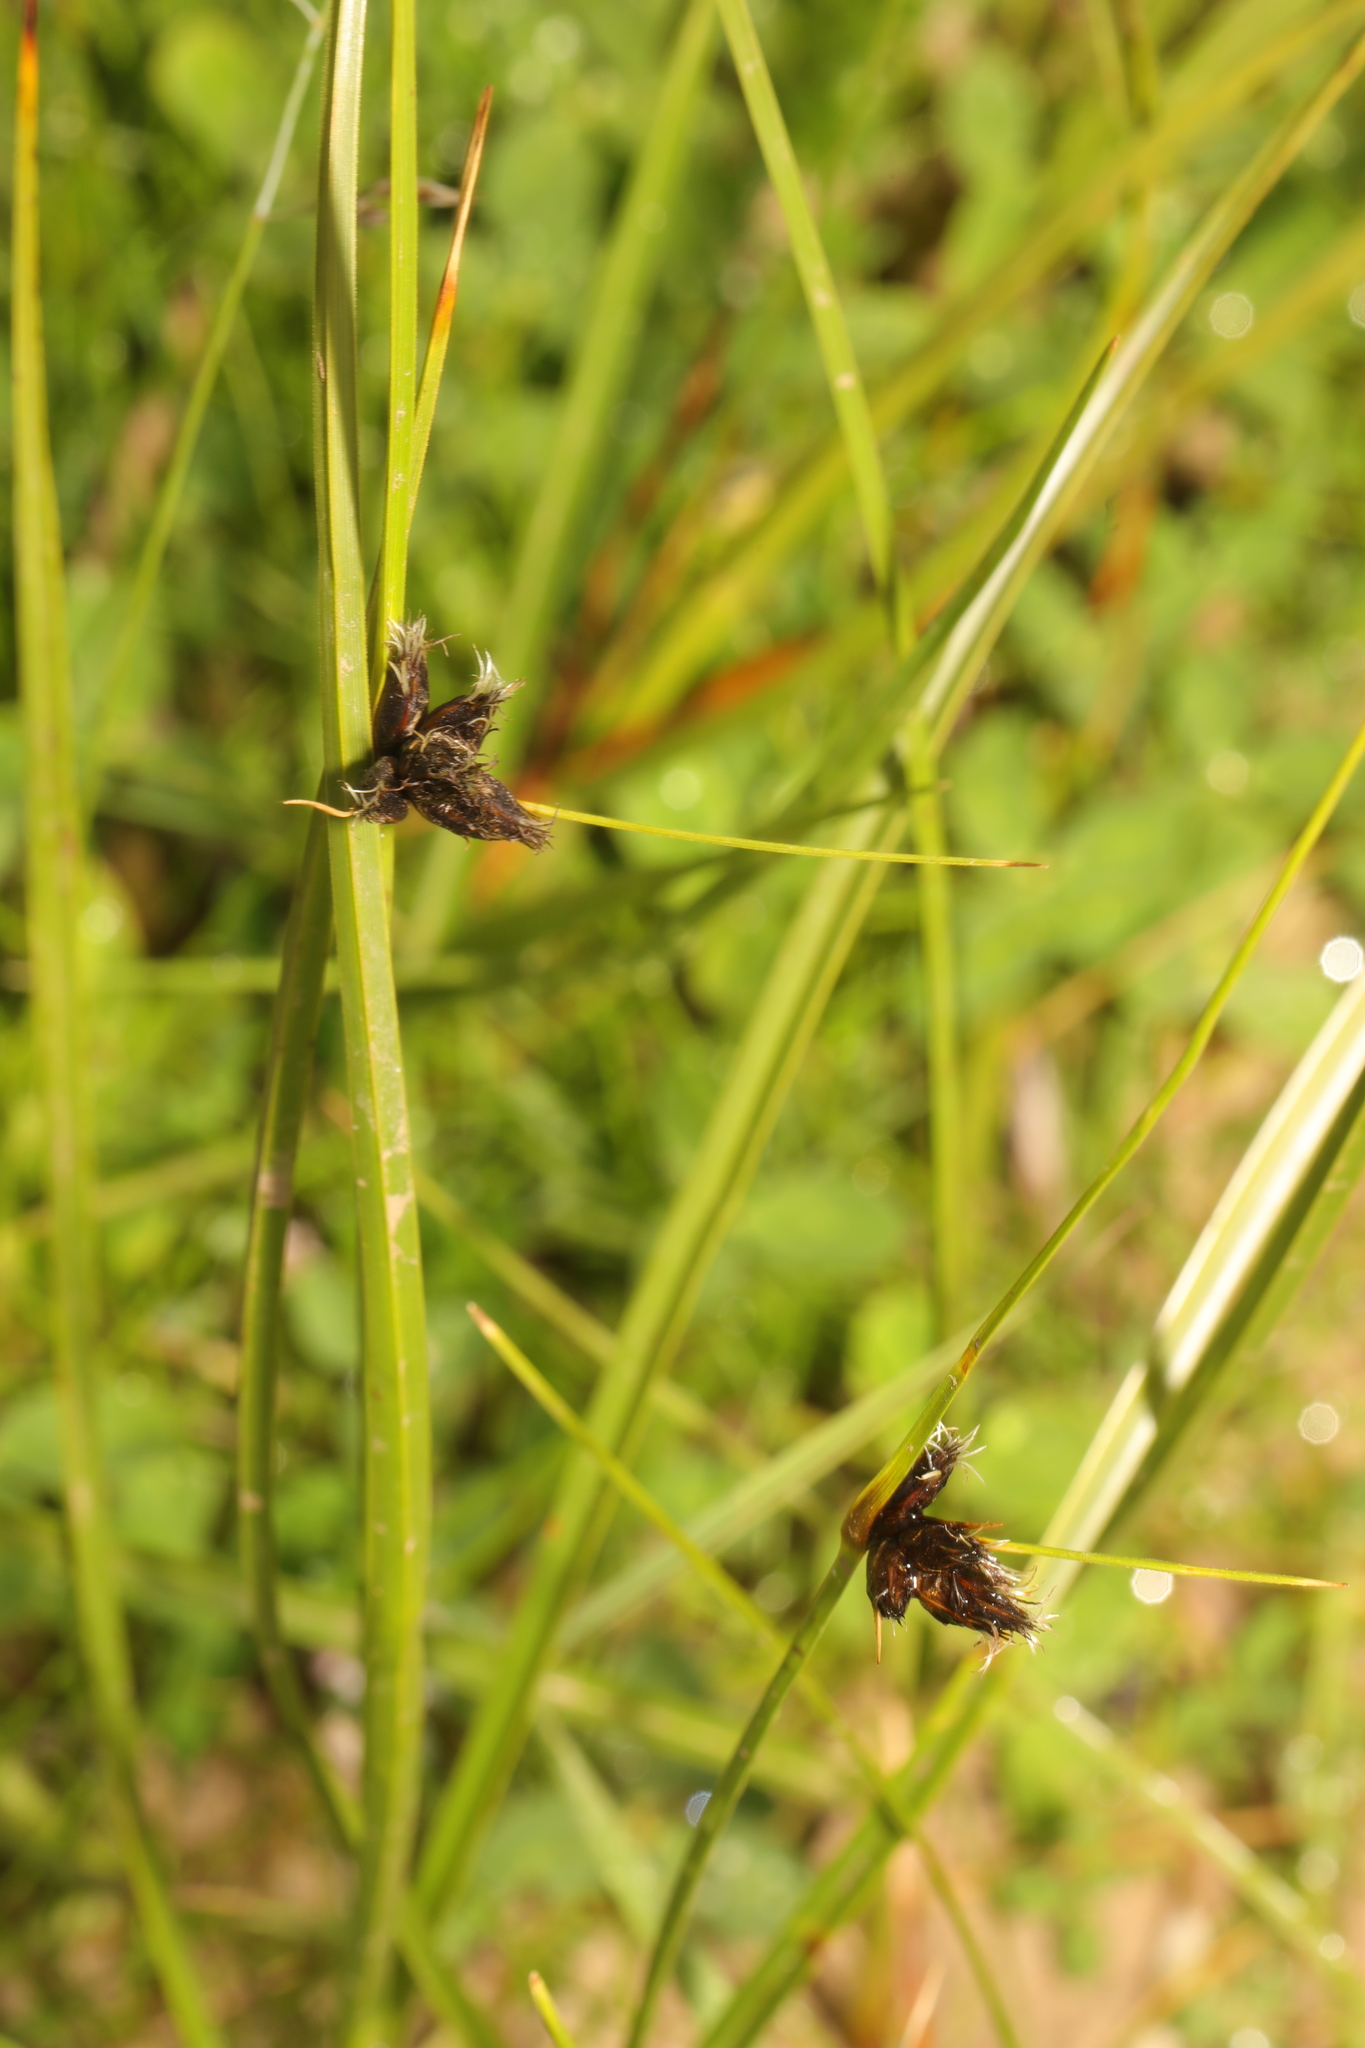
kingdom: Plantae
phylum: Tracheophyta
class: Liliopsida
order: Poales
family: Cyperaceae
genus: Bolboschoenus
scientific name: Bolboschoenus maritimus
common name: Sea club-rush
